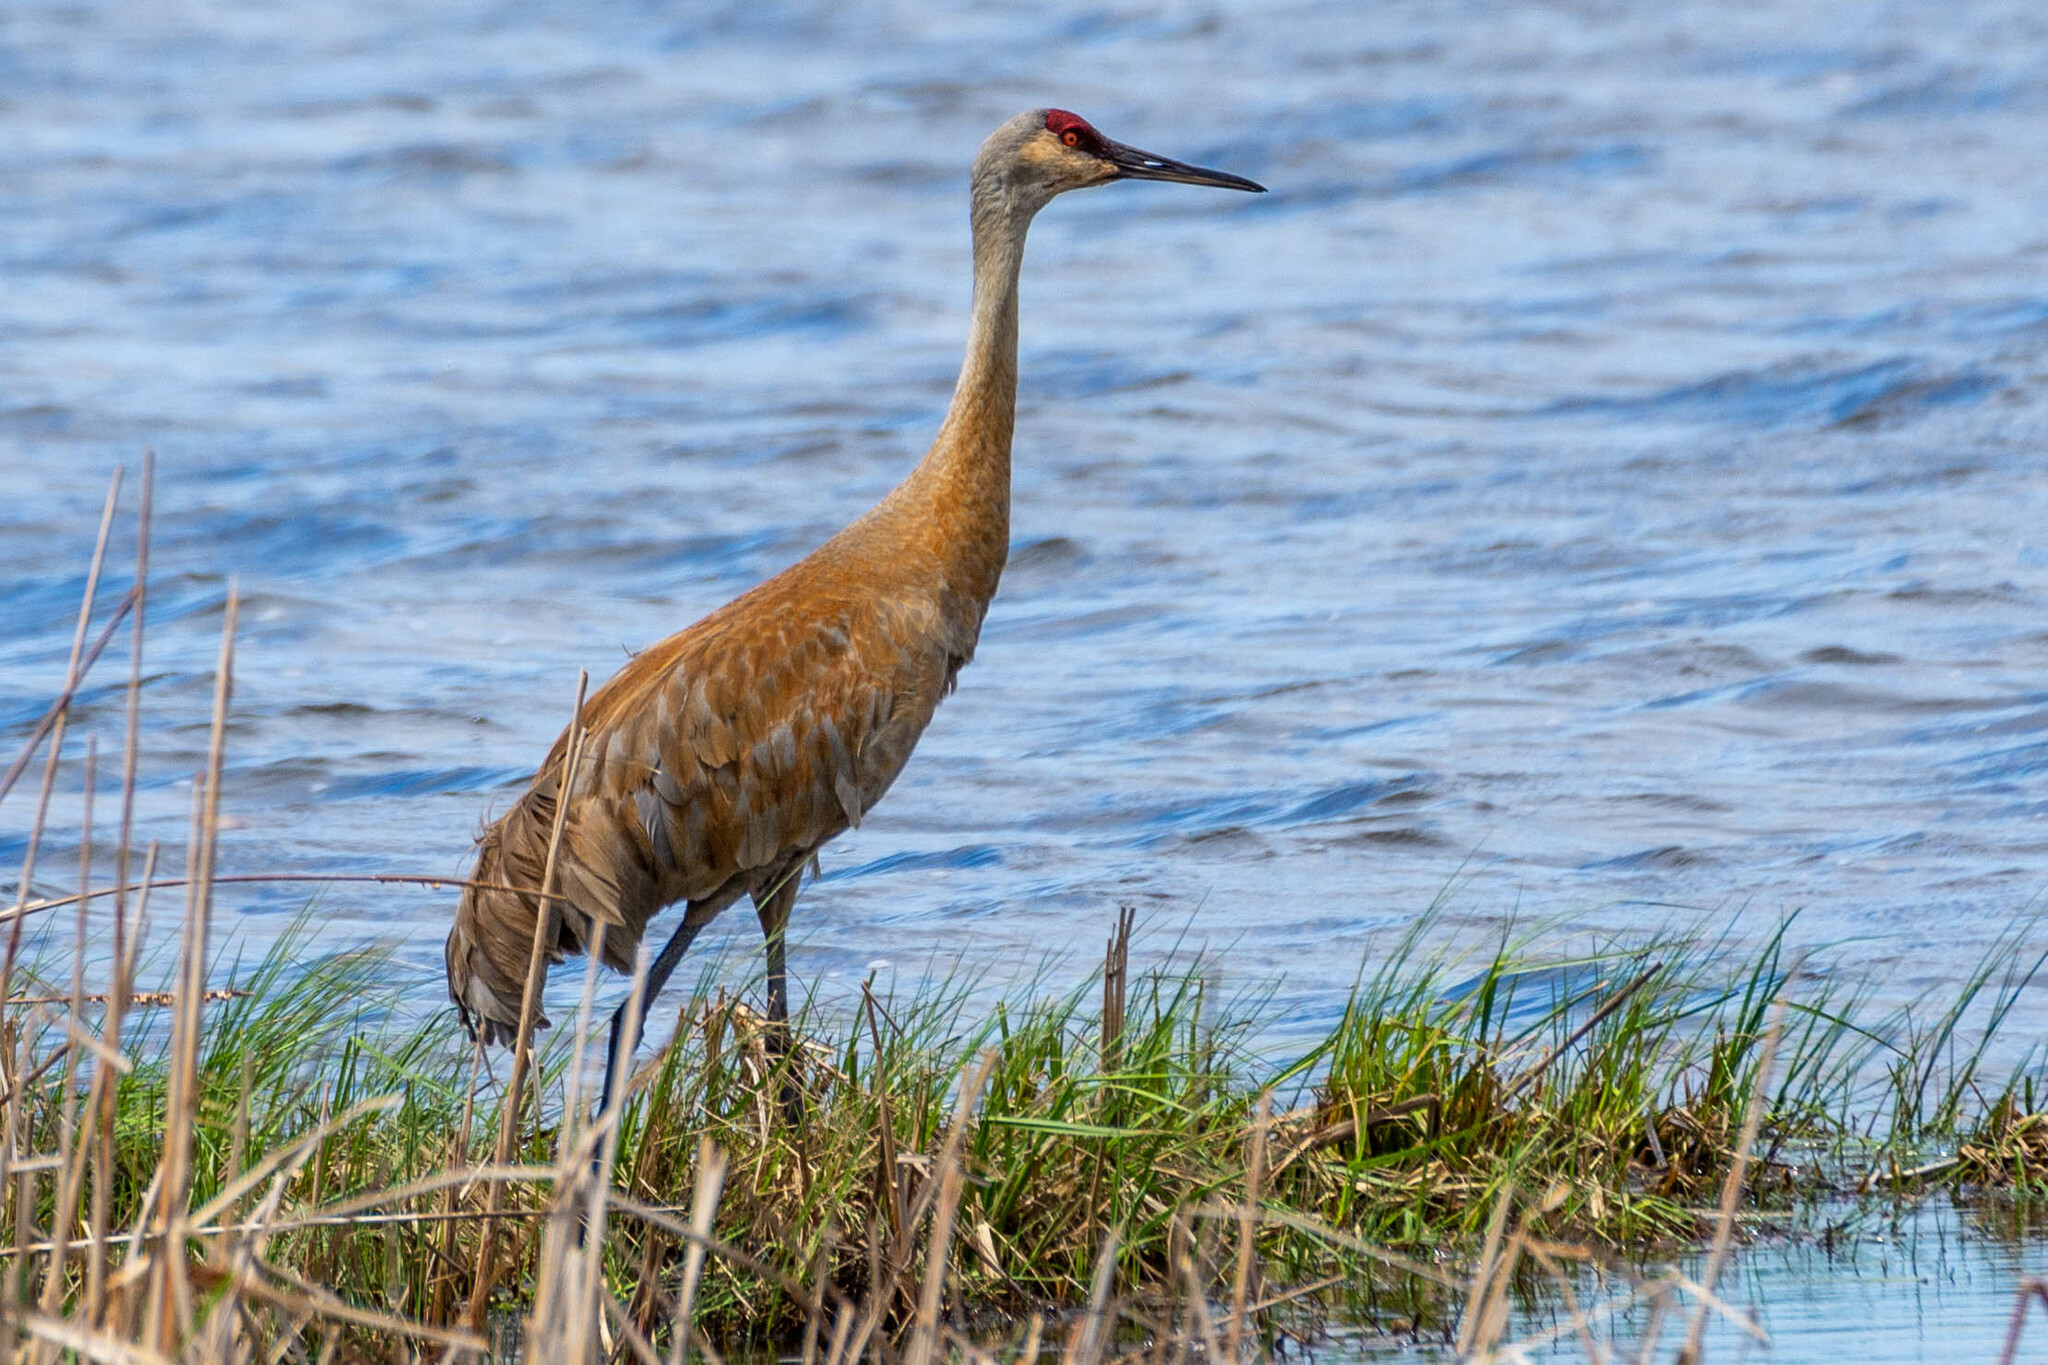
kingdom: Animalia
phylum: Chordata
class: Aves
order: Gruiformes
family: Gruidae
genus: Grus
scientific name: Grus canadensis
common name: Sandhill crane
